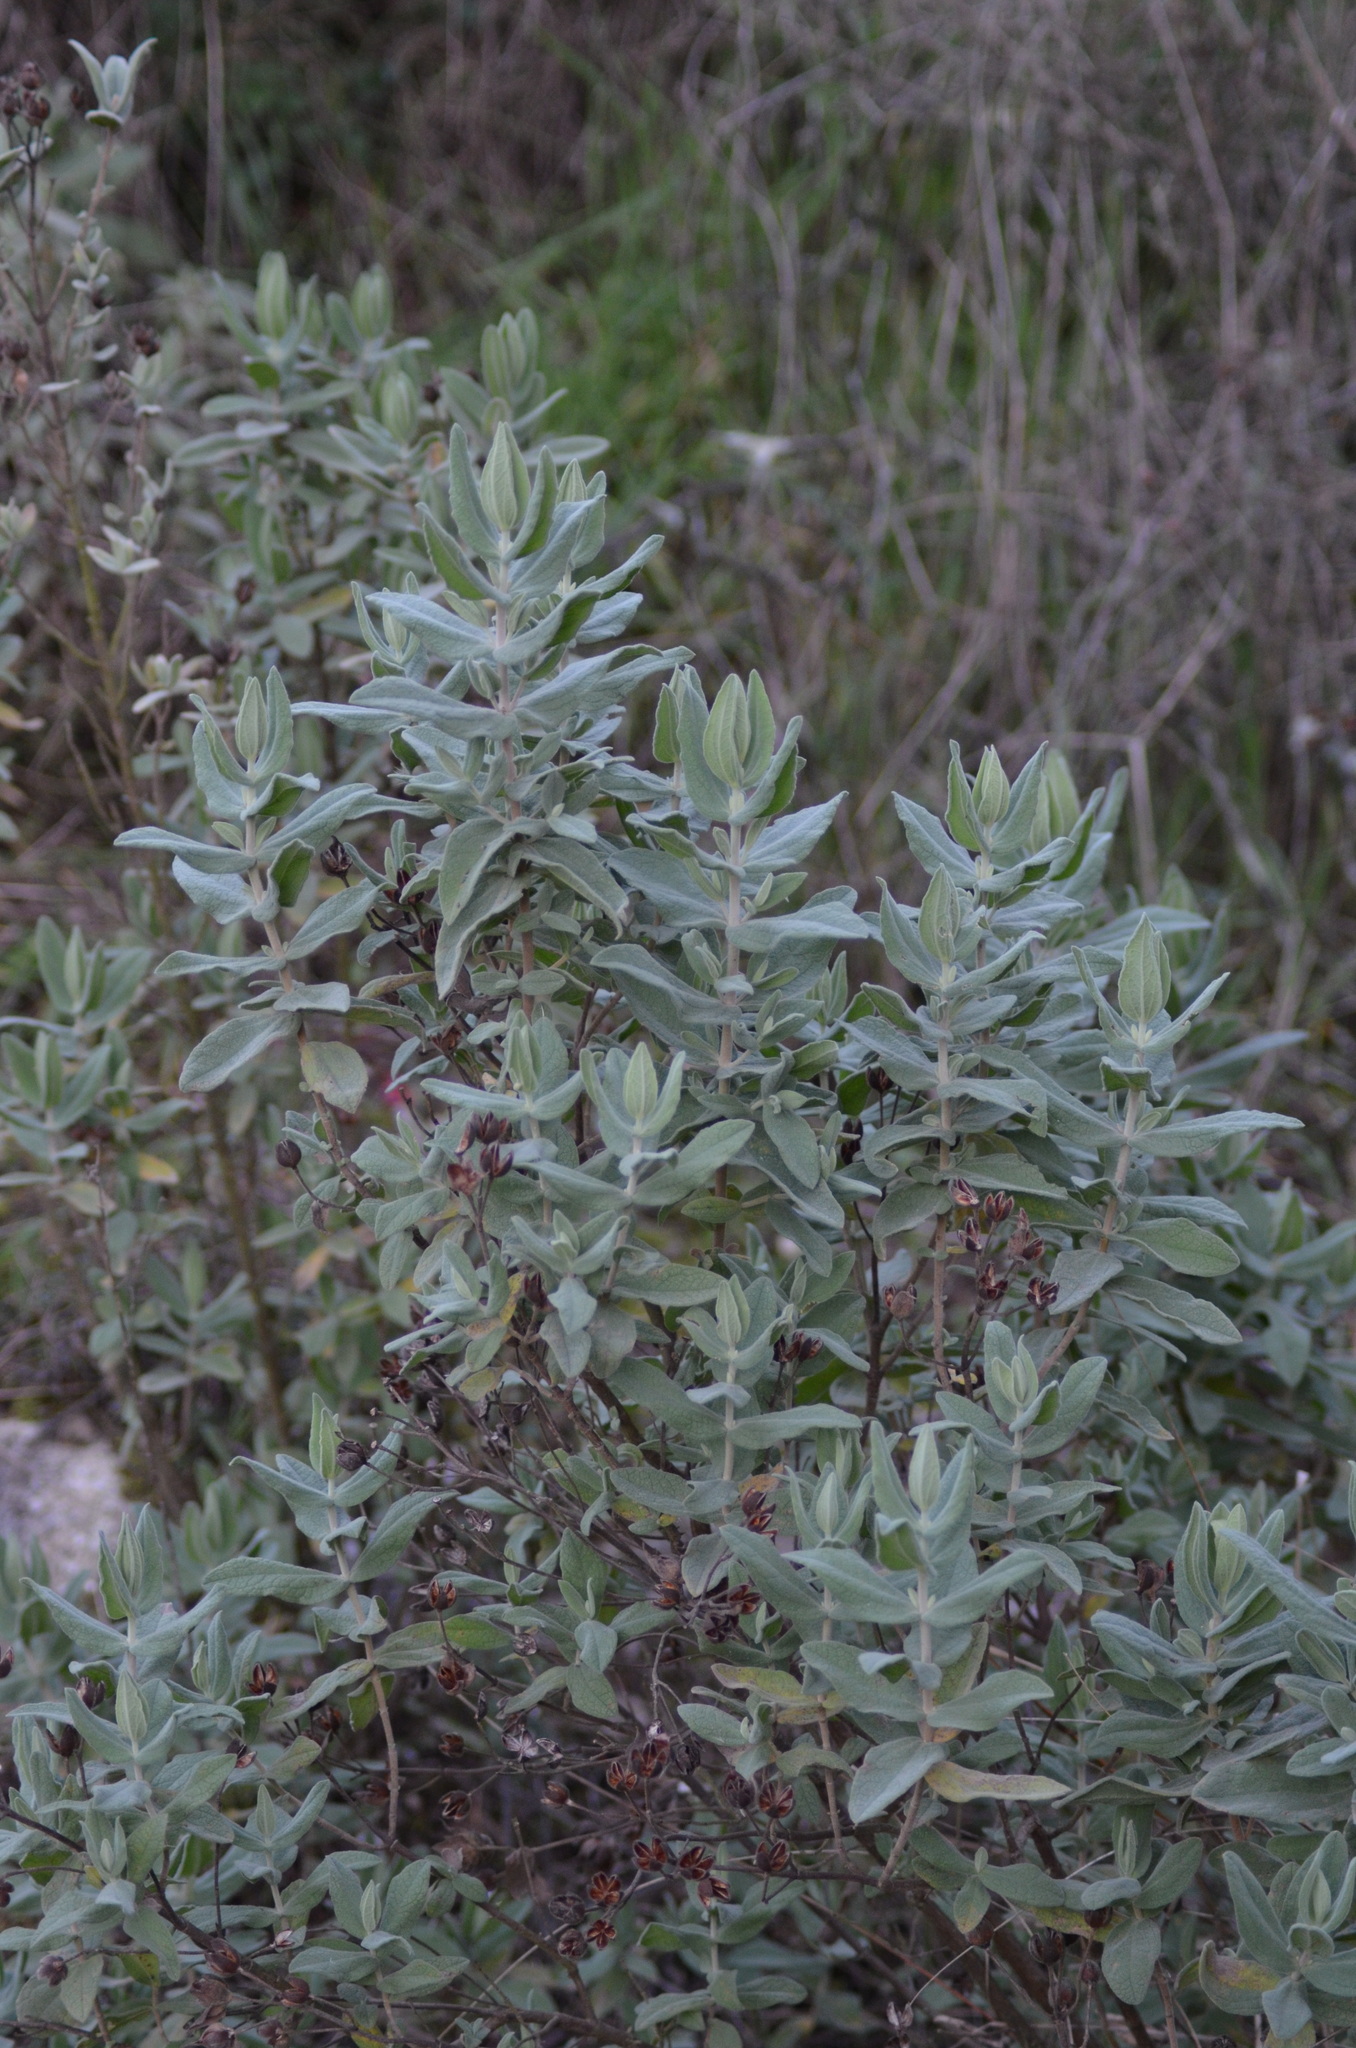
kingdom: Plantae
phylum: Tracheophyta
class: Magnoliopsida
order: Malvales
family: Cistaceae
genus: Cistus
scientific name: Cistus albidus
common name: White-leaf rock-rose
